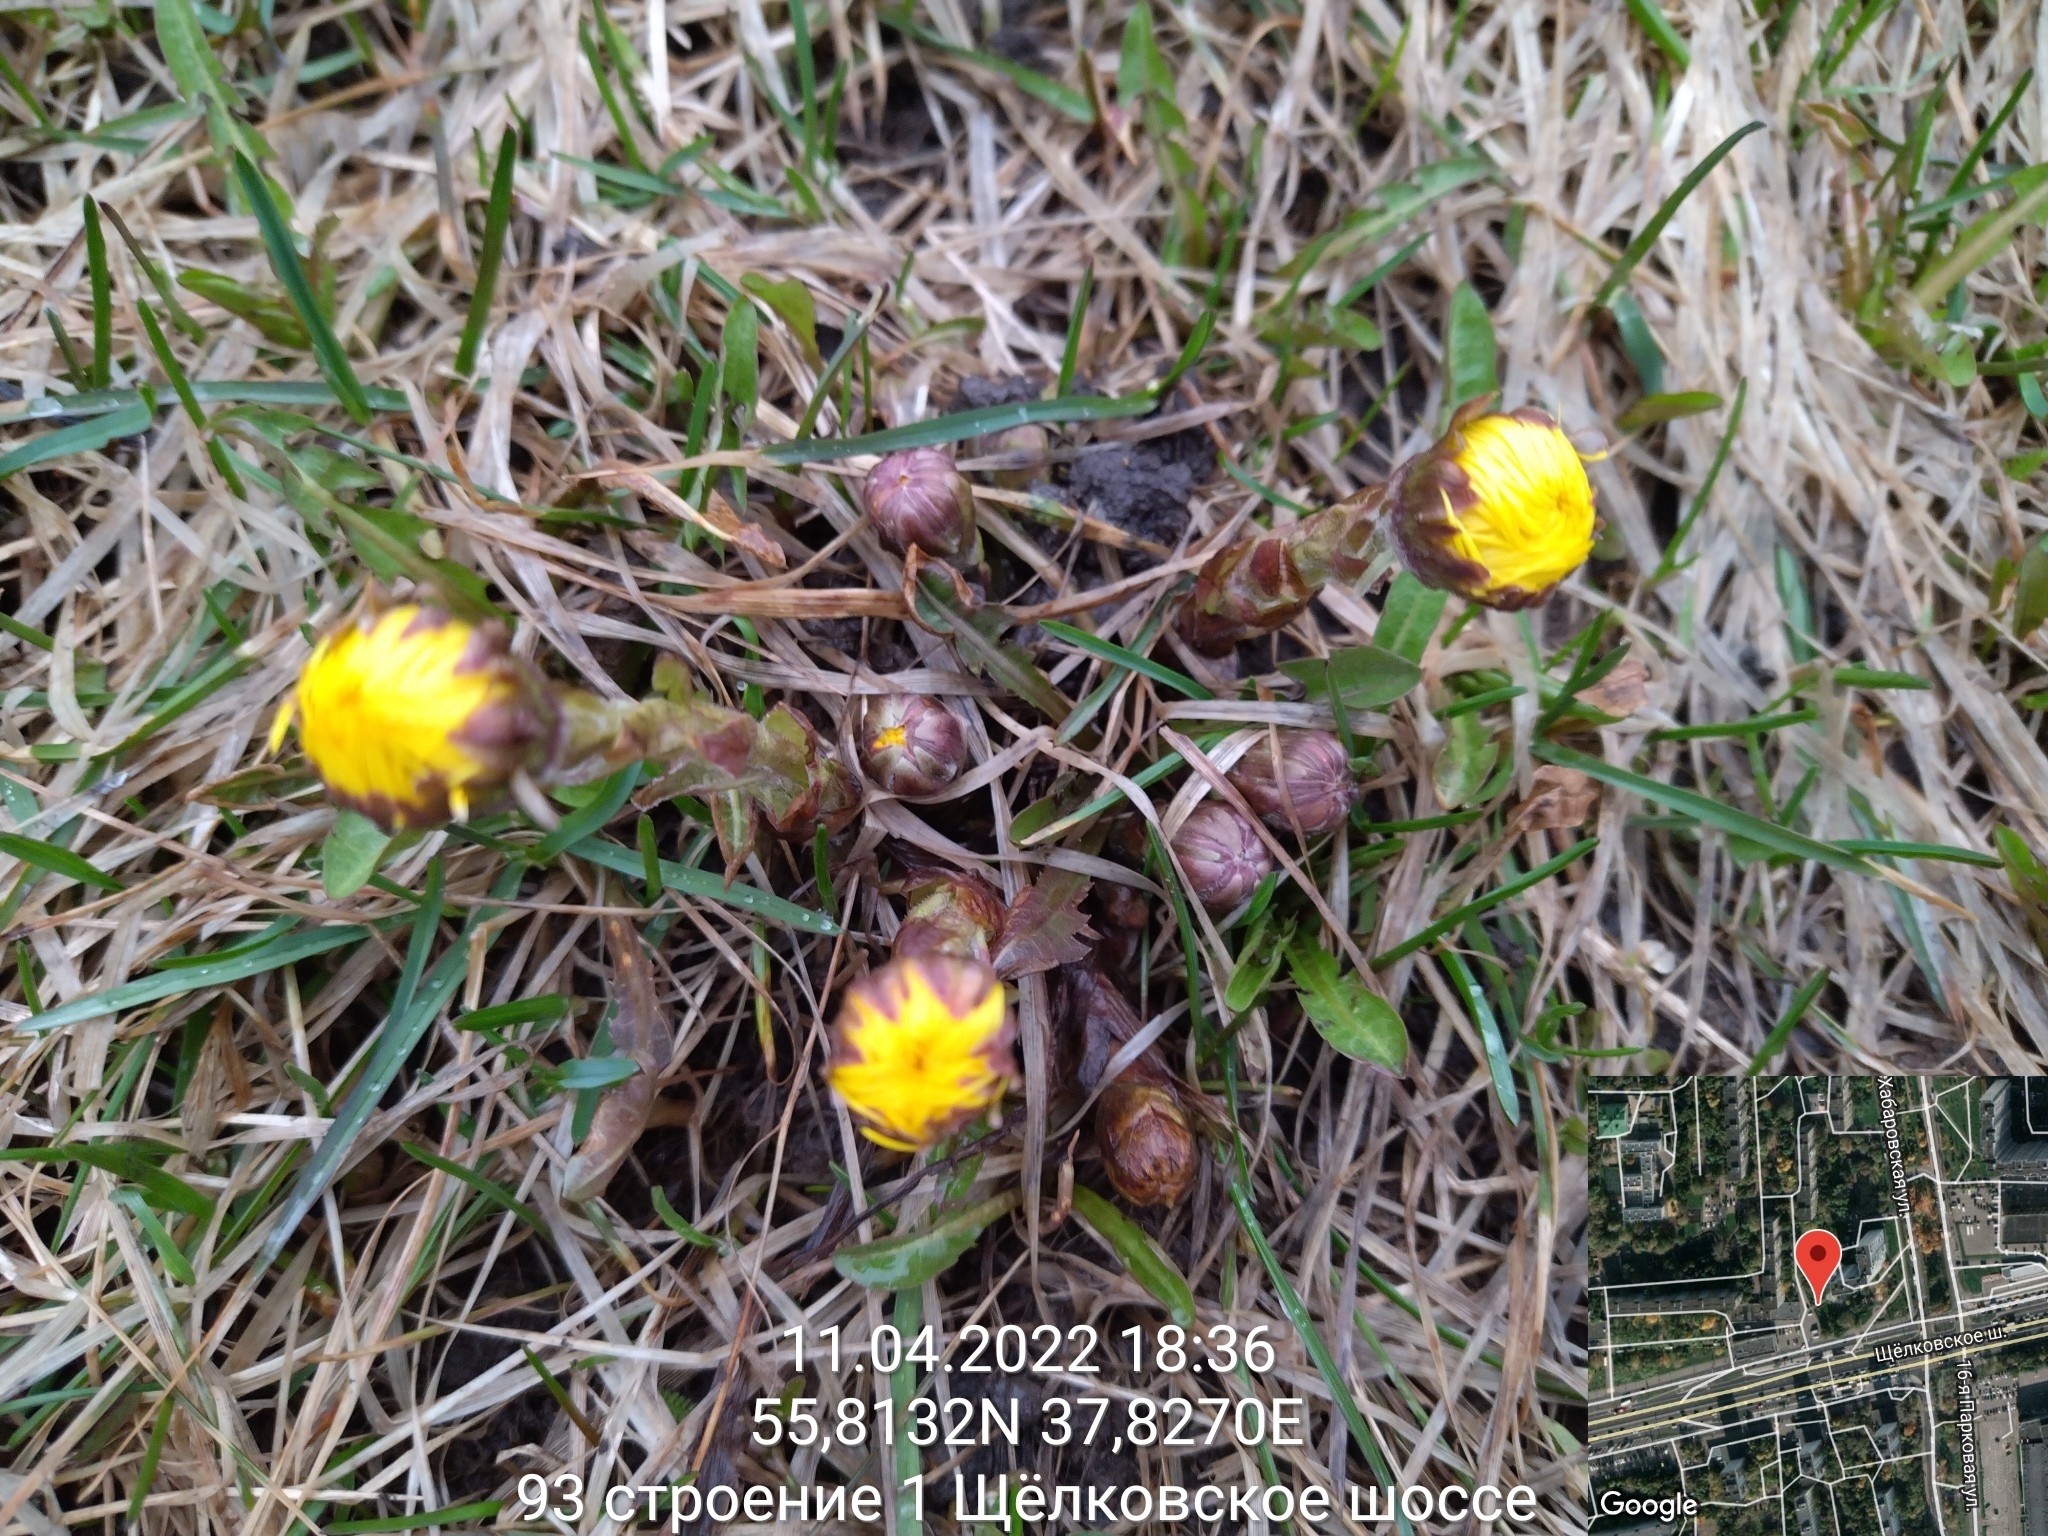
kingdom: Plantae
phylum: Tracheophyta
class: Magnoliopsida
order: Asterales
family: Asteraceae
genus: Tussilago
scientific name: Tussilago farfara
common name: Coltsfoot
